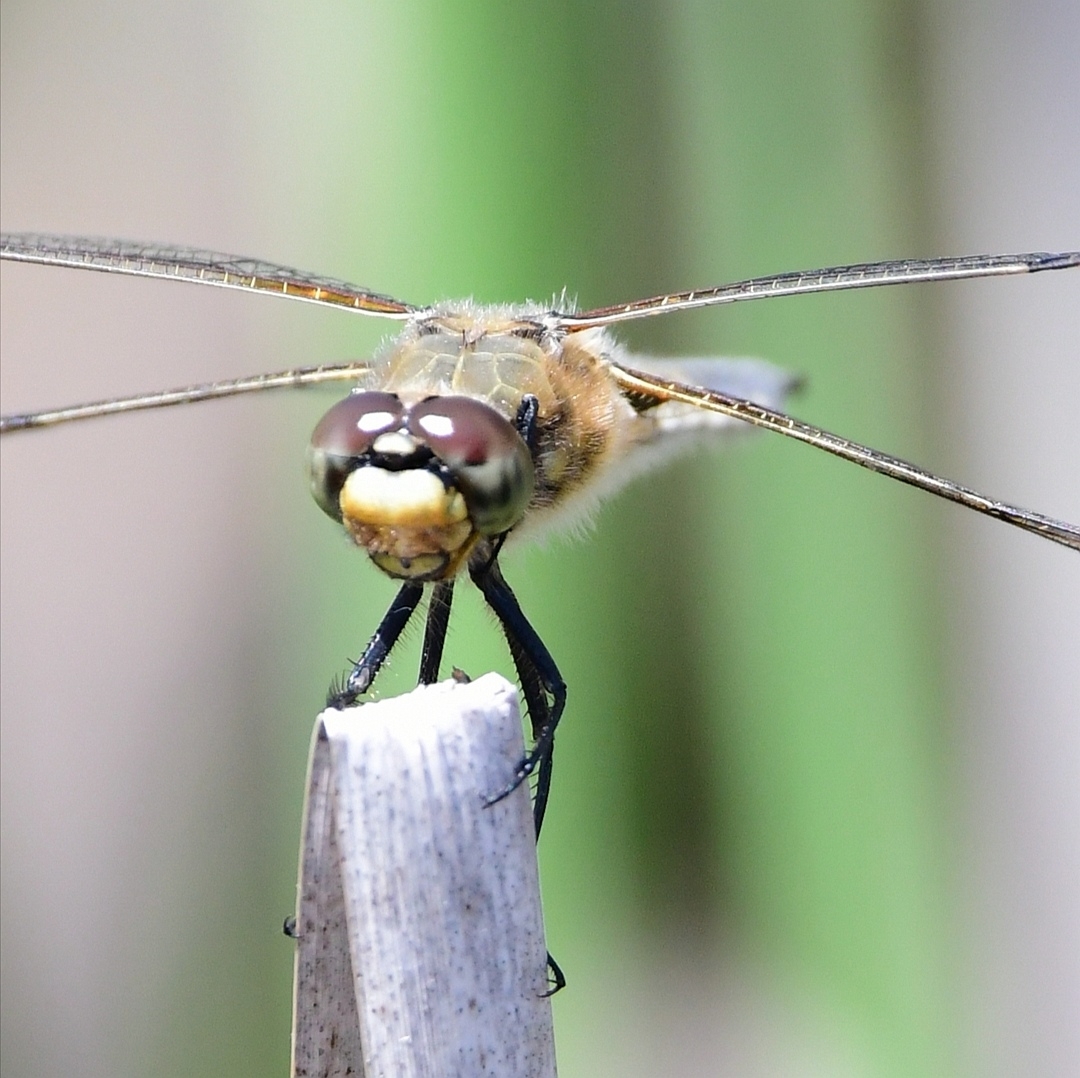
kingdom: Animalia
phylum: Arthropoda
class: Insecta
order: Odonata
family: Libellulidae
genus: Libellula
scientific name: Libellula quadrimaculata
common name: Four-spotted chaser
